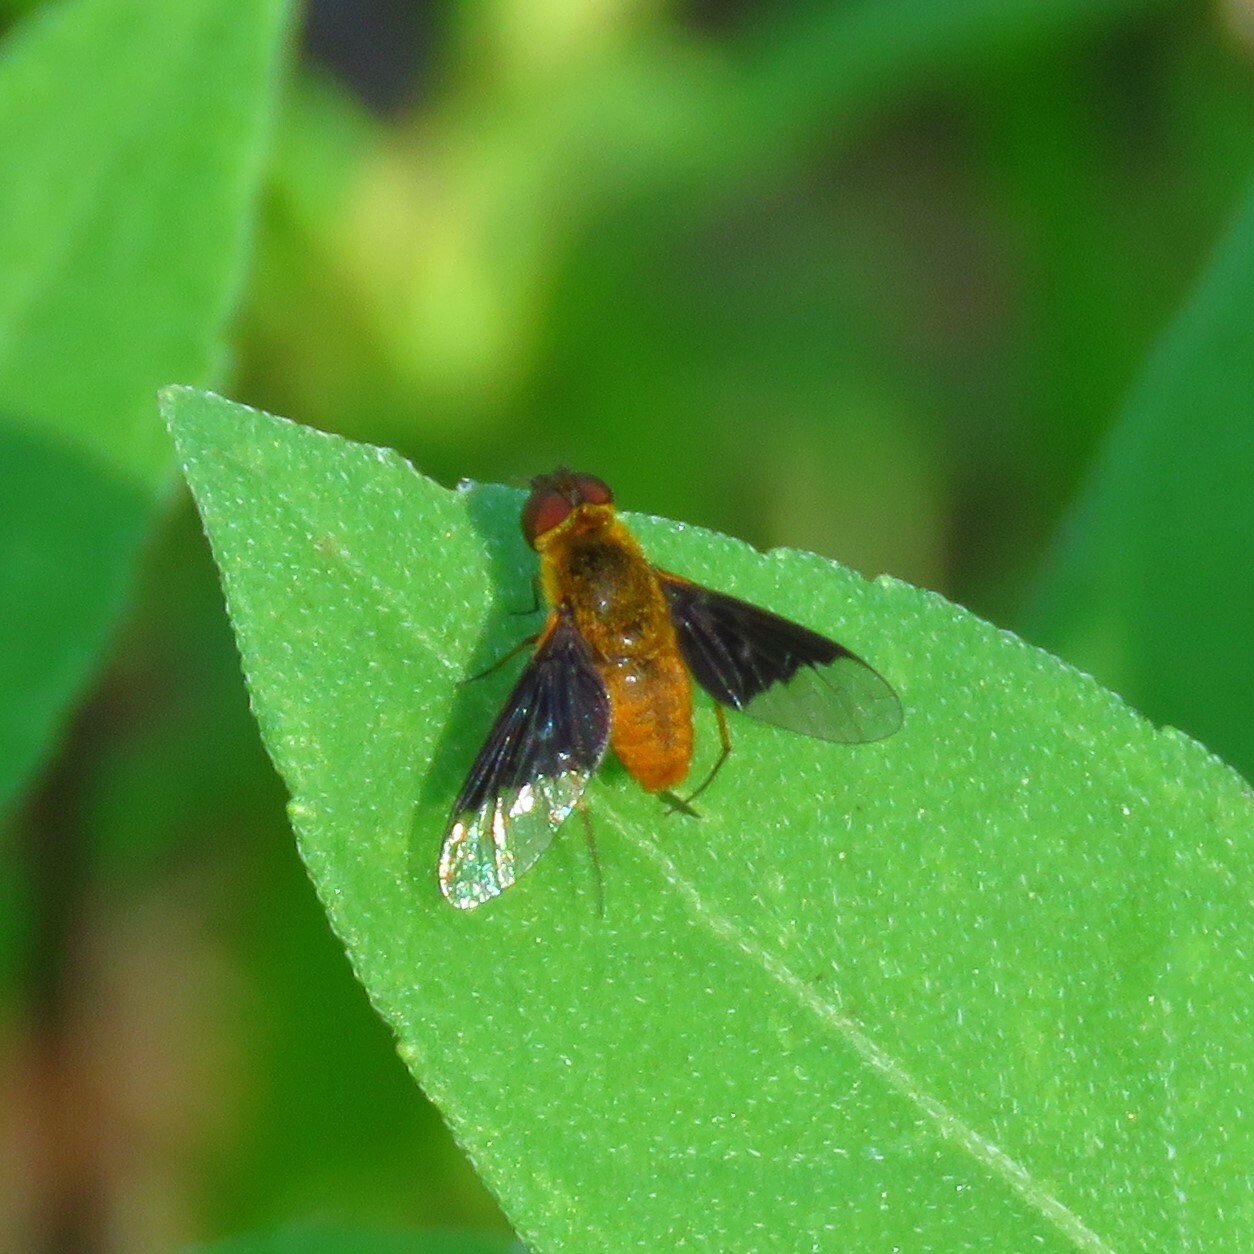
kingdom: Animalia
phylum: Arthropoda
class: Insecta
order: Diptera
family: Bombyliidae
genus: Chrysanthrax
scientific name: Chrysanthrax cypris
